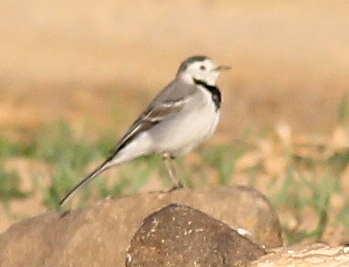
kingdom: Animalia
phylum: Chordata
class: Aves
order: Passeriformes
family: Motacillidae
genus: Motacilla
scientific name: Motacilla alba
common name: White wagtail
